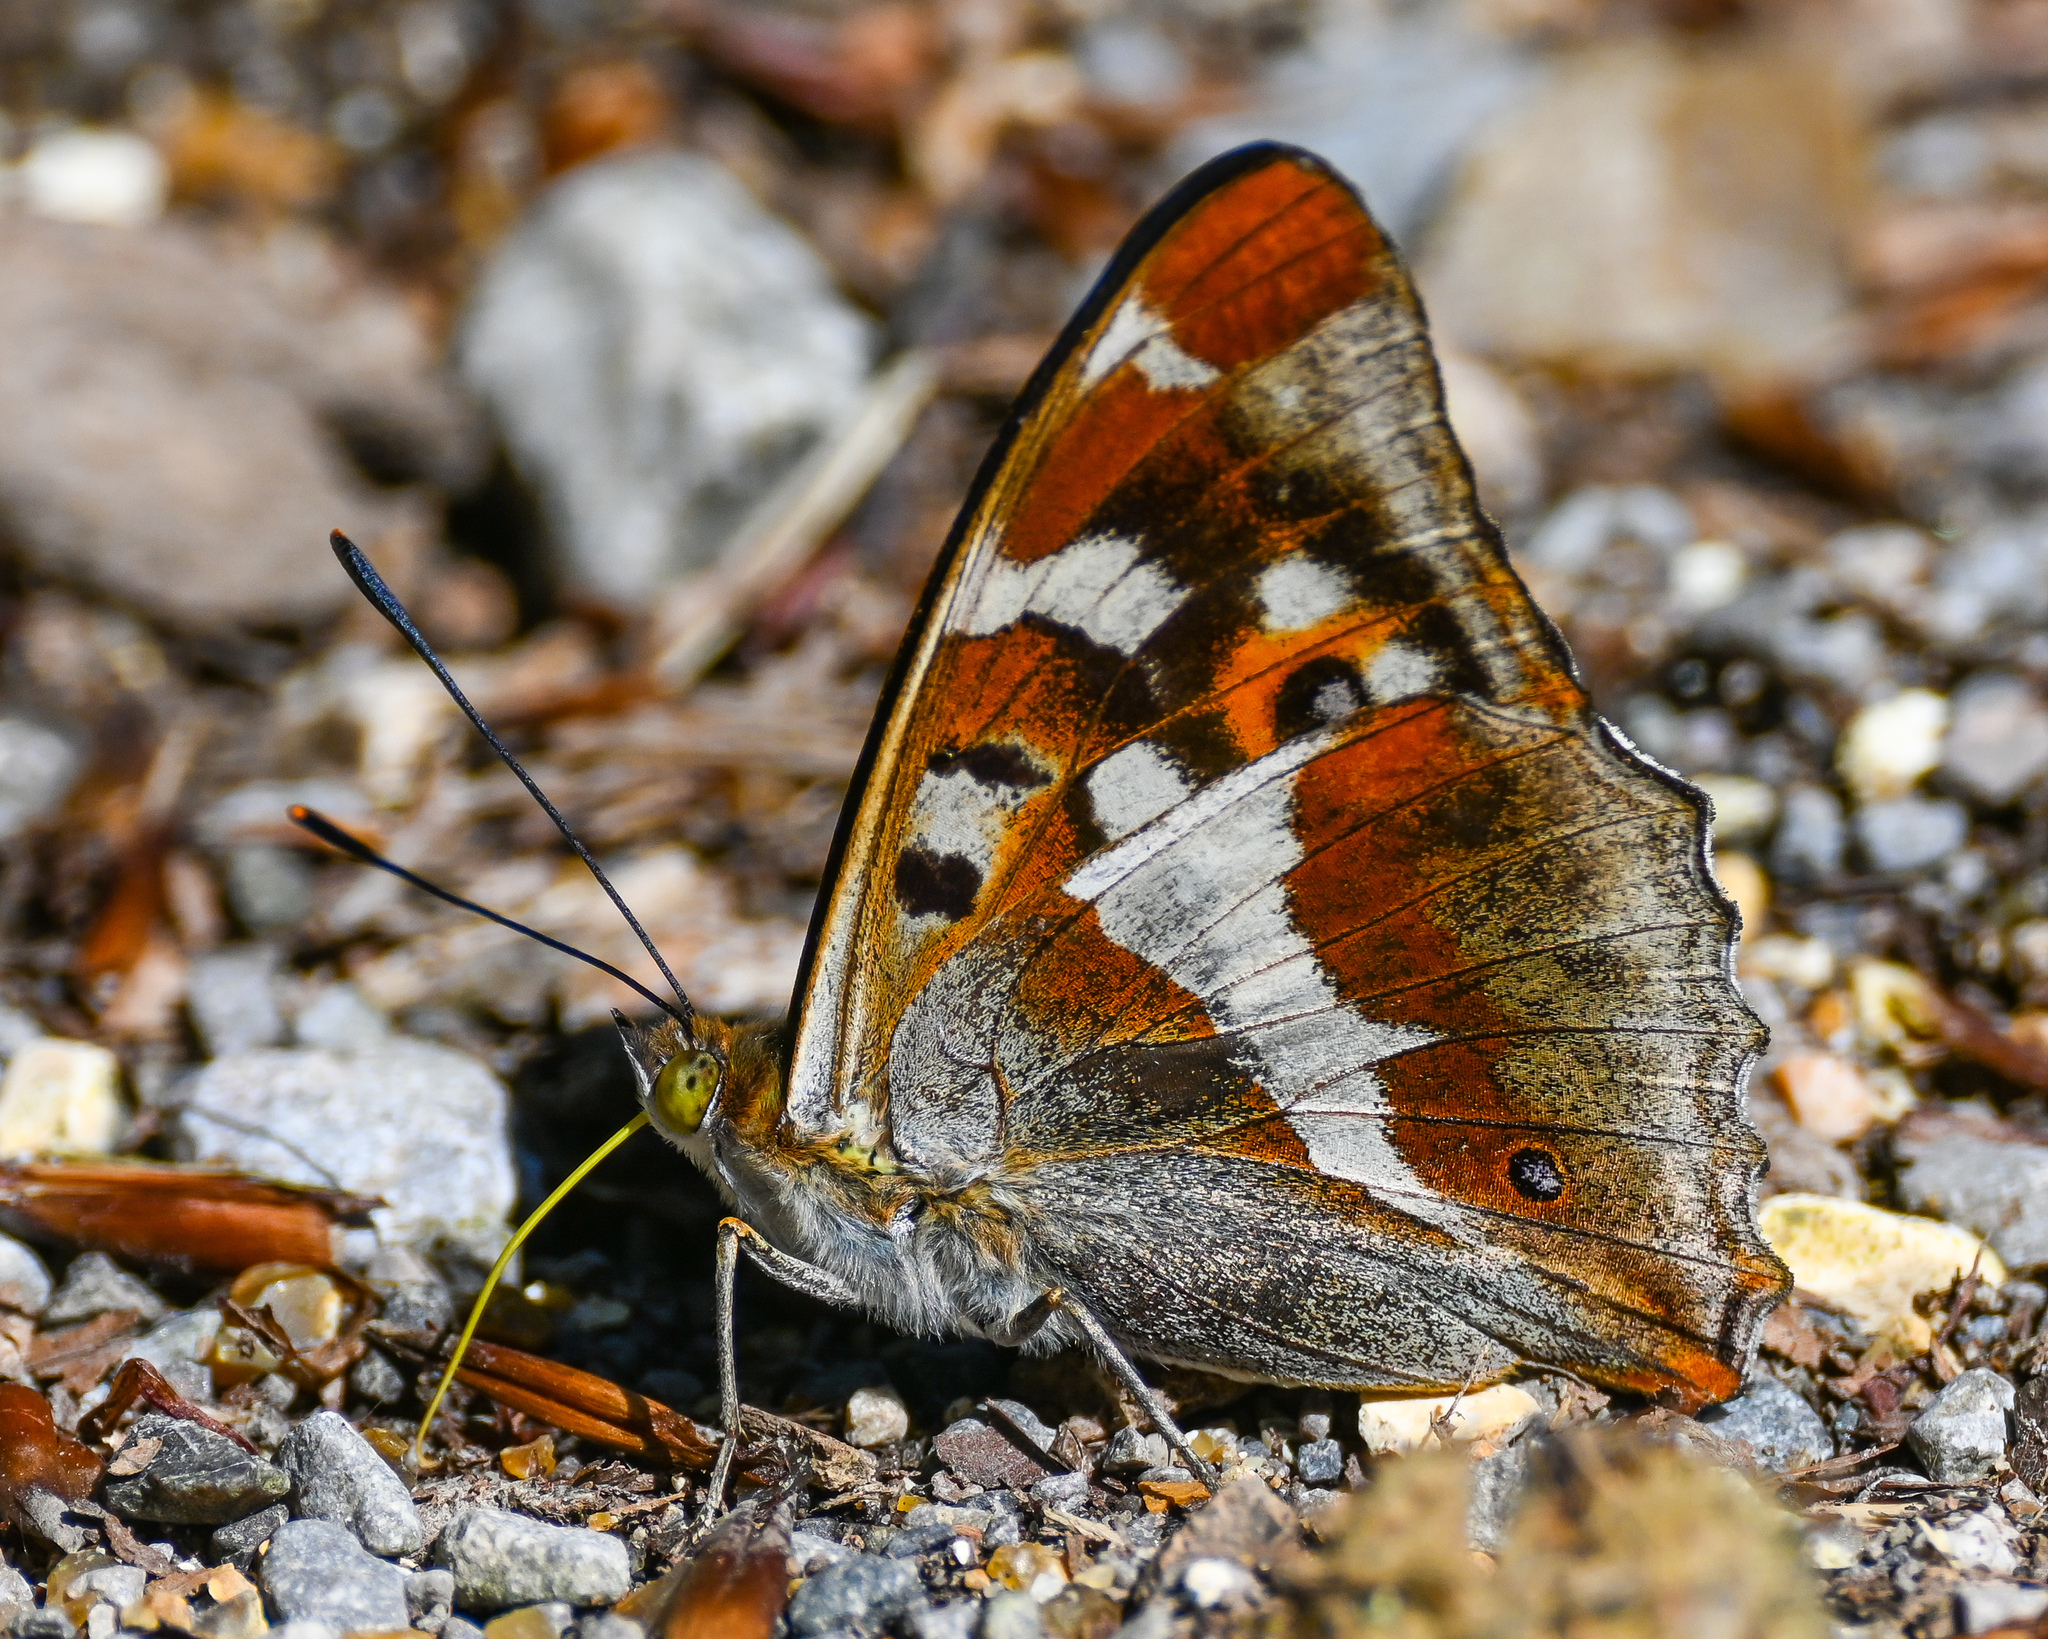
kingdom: Animalia
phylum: Arthropoda
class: Insecta
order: Lepidoptera
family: Nymphalidae
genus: Apatura
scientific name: Apatura iris
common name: Purple emperor
